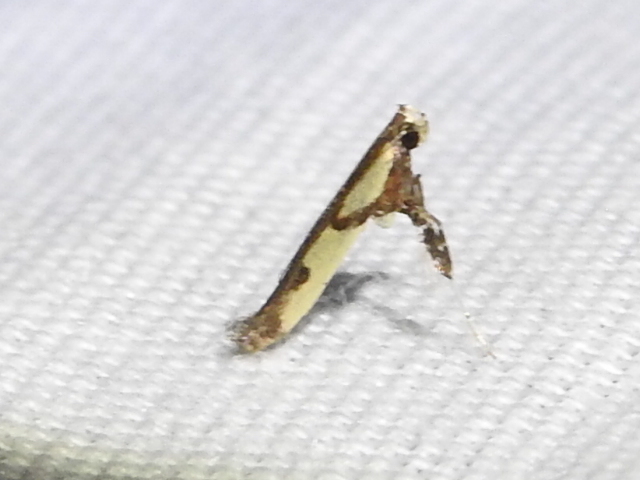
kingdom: Animalia
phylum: Arthropoda
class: Insecta
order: Lepidoptera
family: Gracillariidae
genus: Caloptilia
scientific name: Caloptilia blandella
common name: Walnut caloptilia moth
